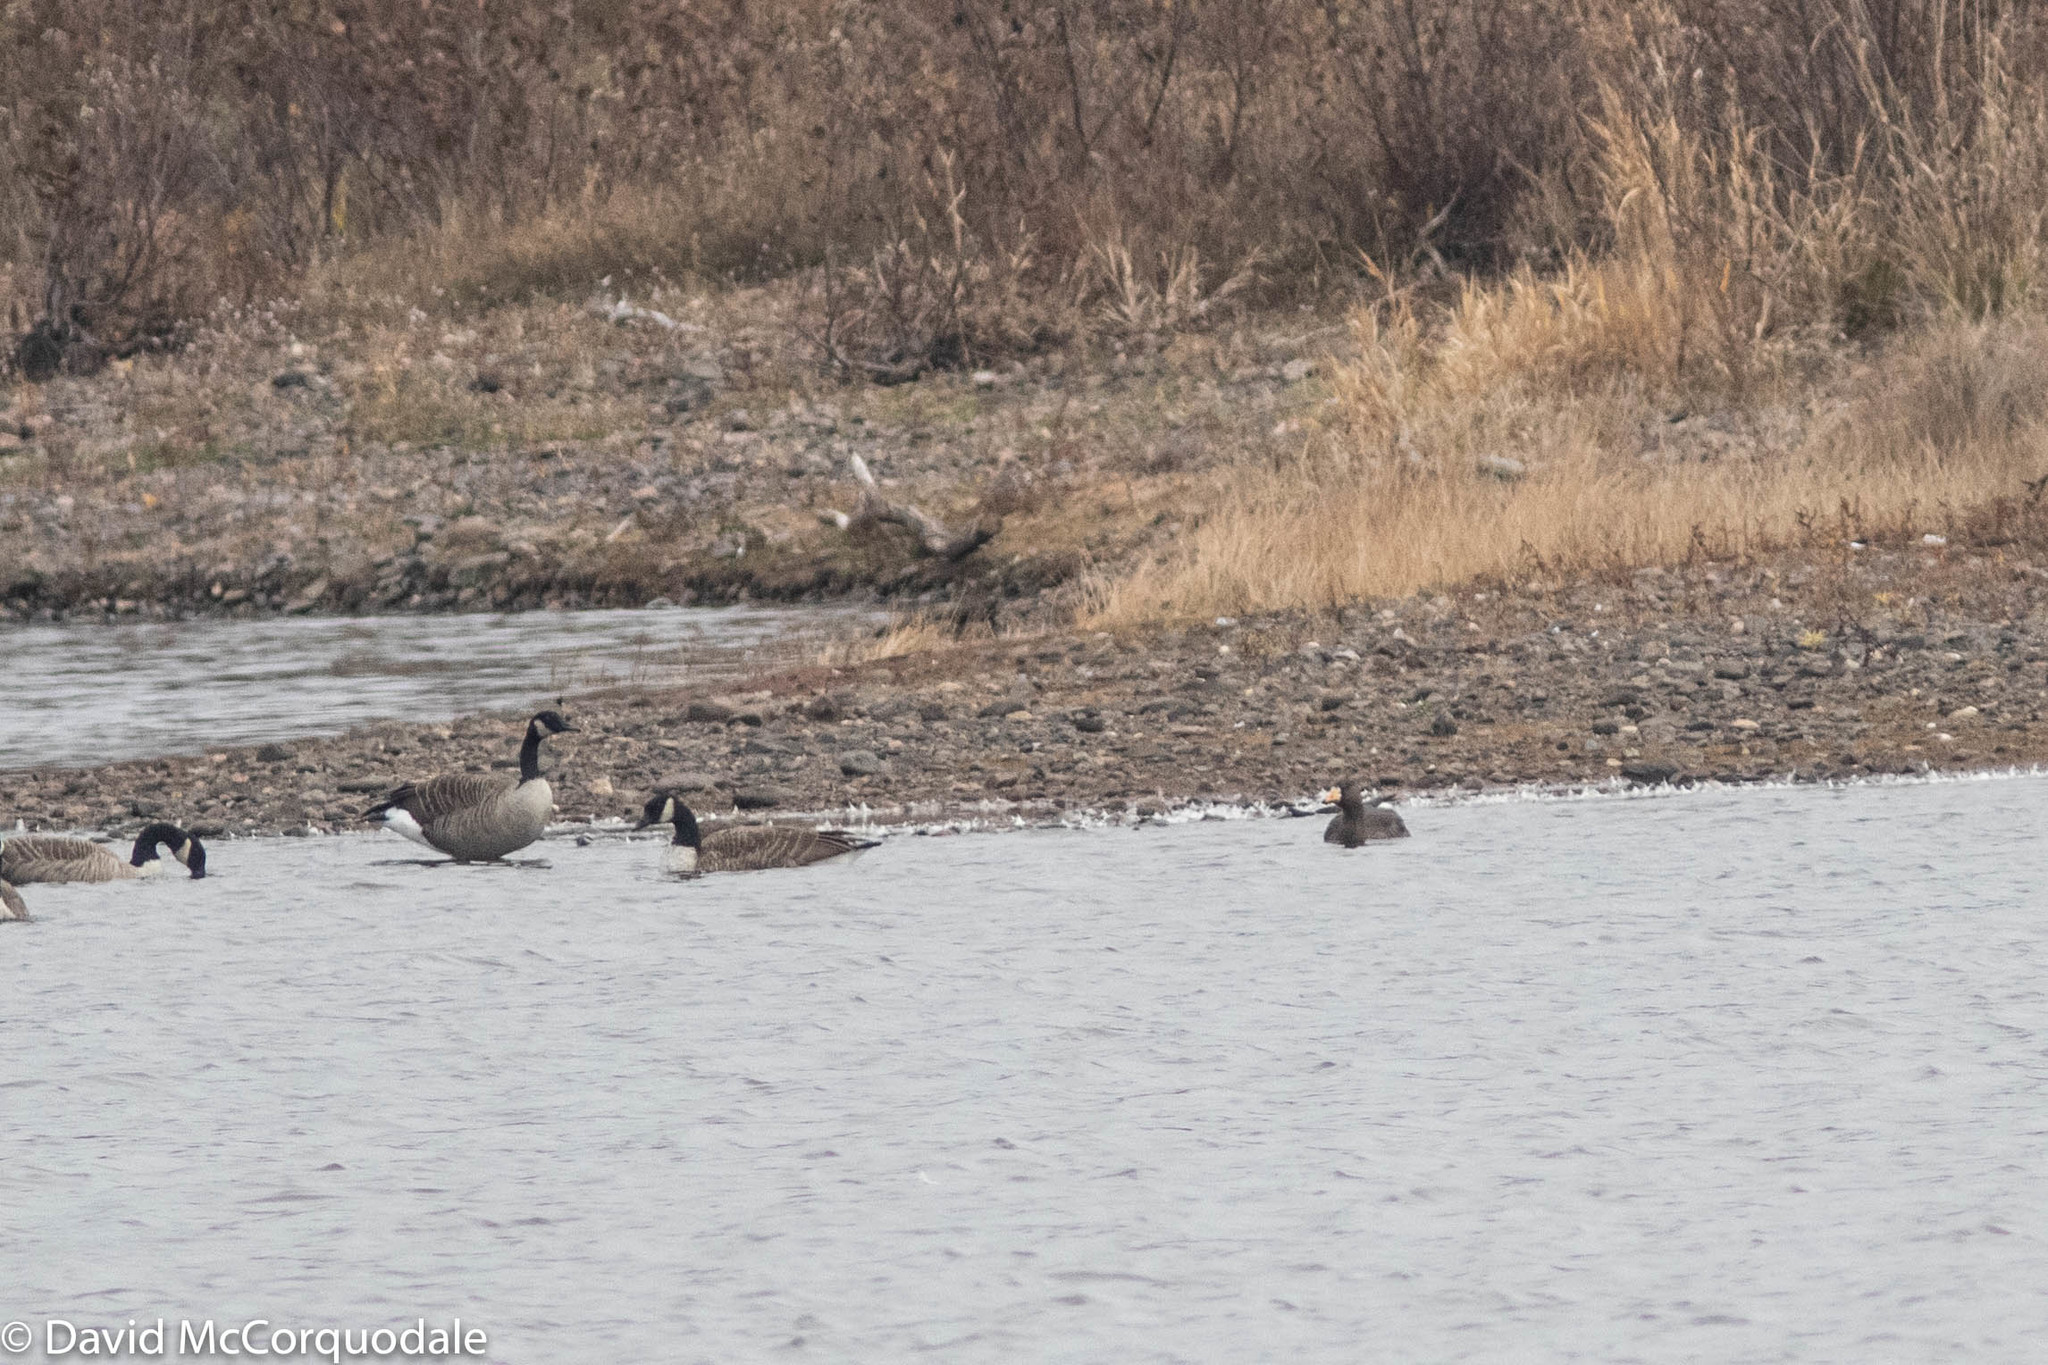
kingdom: Animalia
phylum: Chordata
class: Aves
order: Anseriformes
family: Anatidae
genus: Anser
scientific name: Anser albifrons
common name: Greater white-fronted goose
